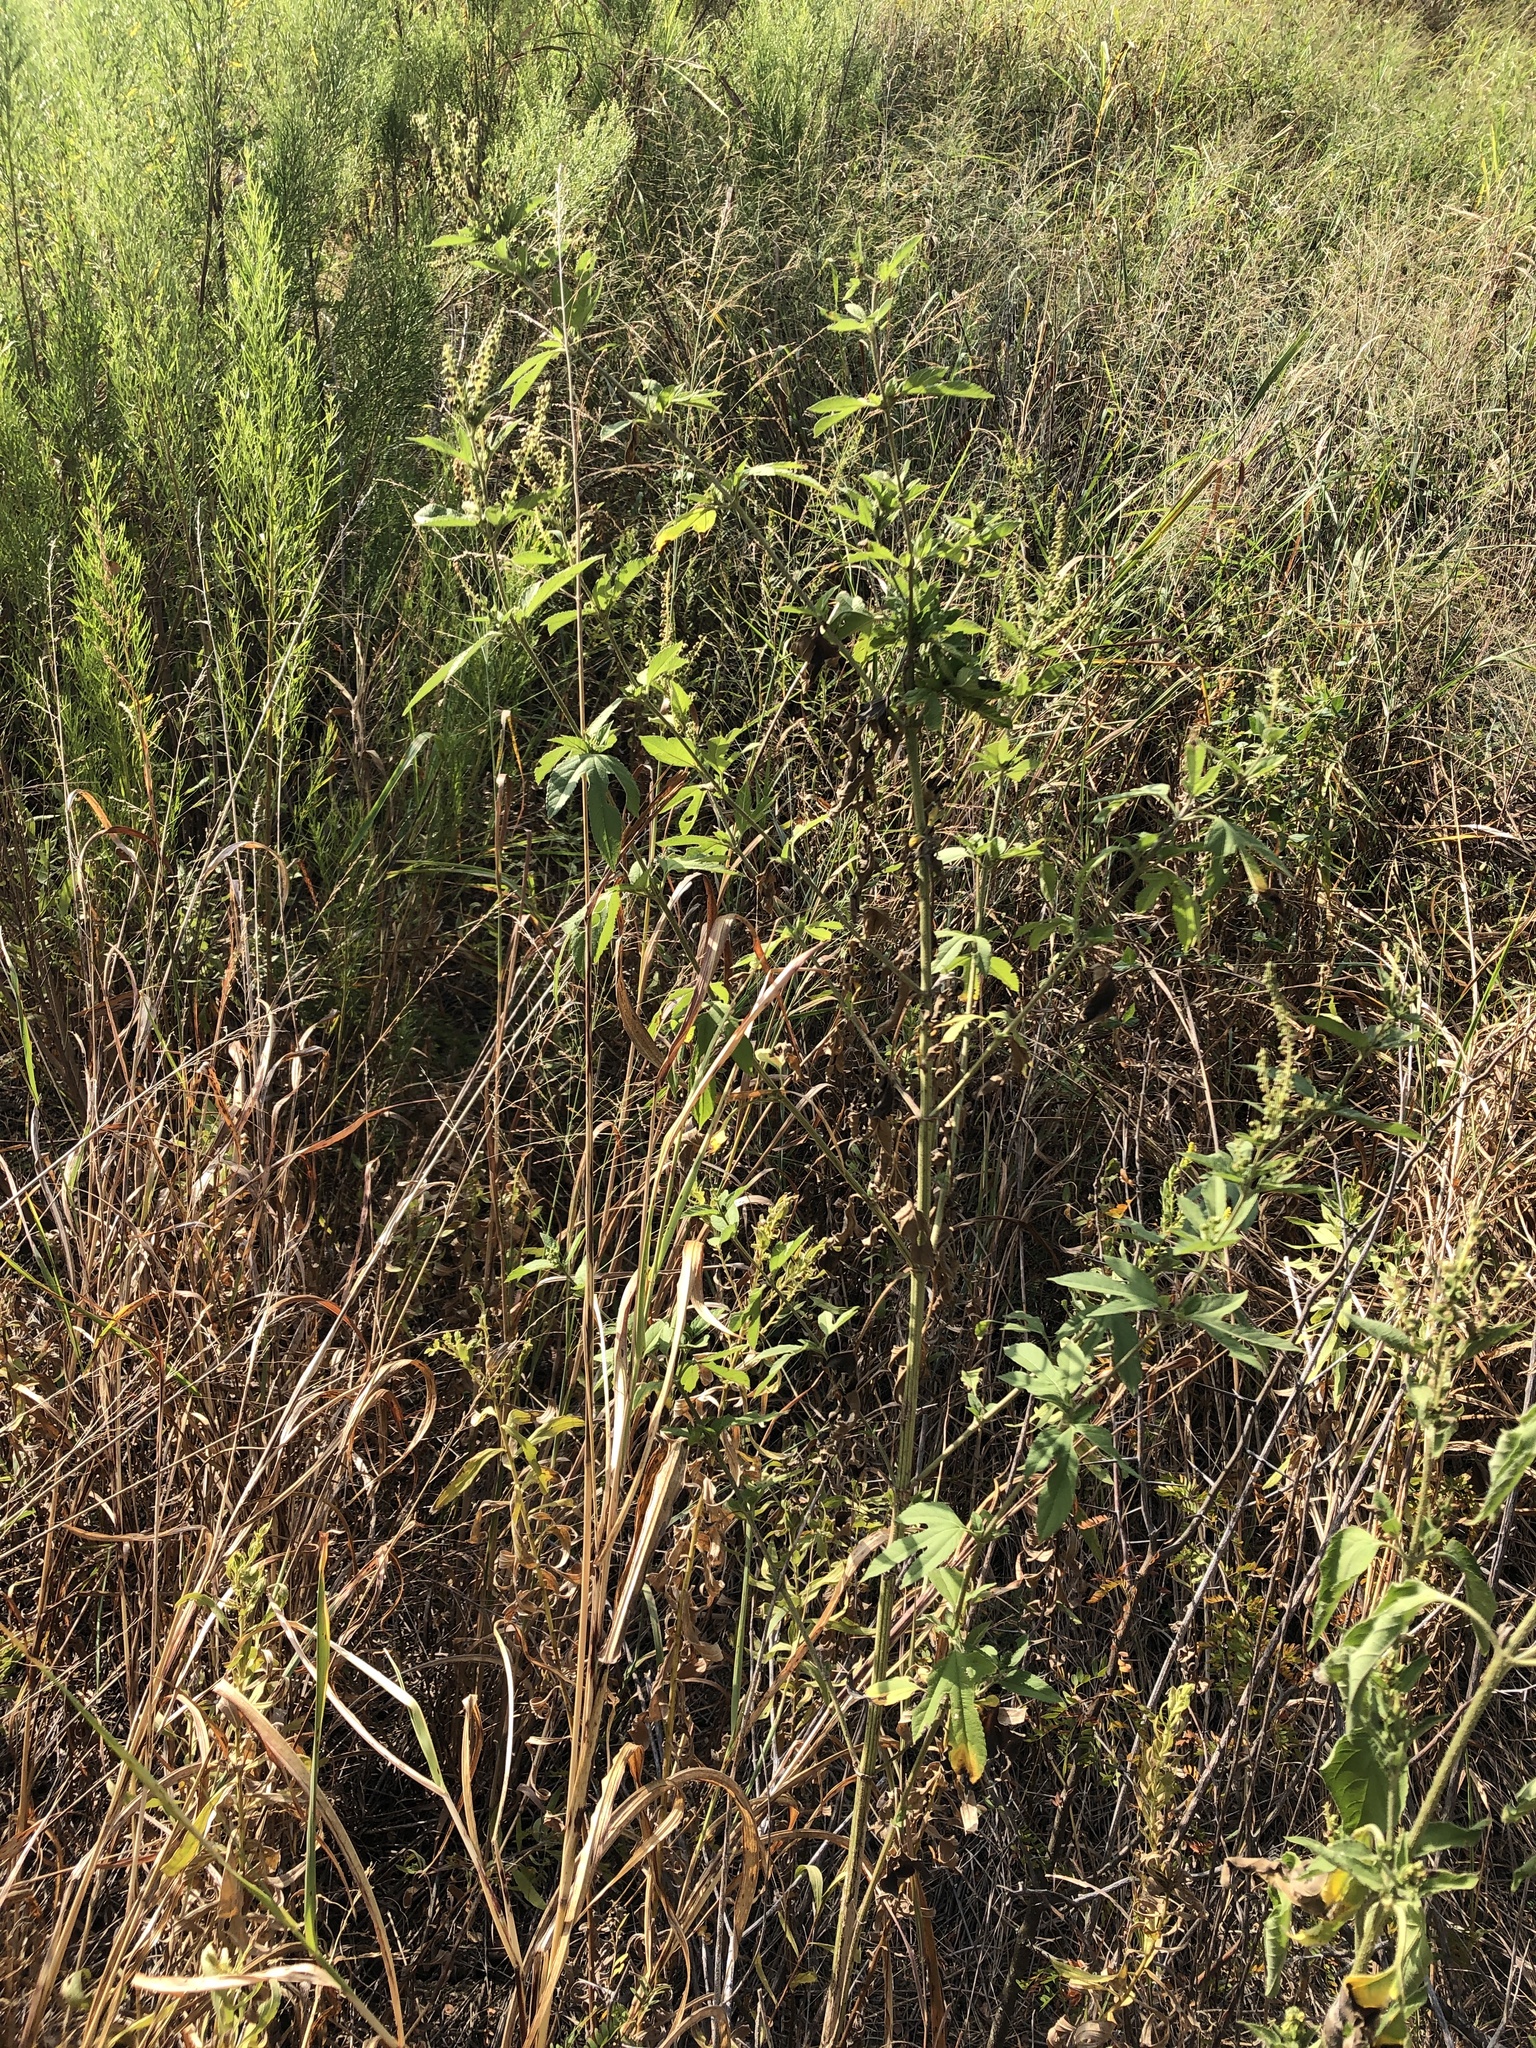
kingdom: Plantae
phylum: Tracheophyta
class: Magnoliopsida
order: Asterales
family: Asteraceae
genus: Ambrosia
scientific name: Ambrosia trifida
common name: Giant ragweed
